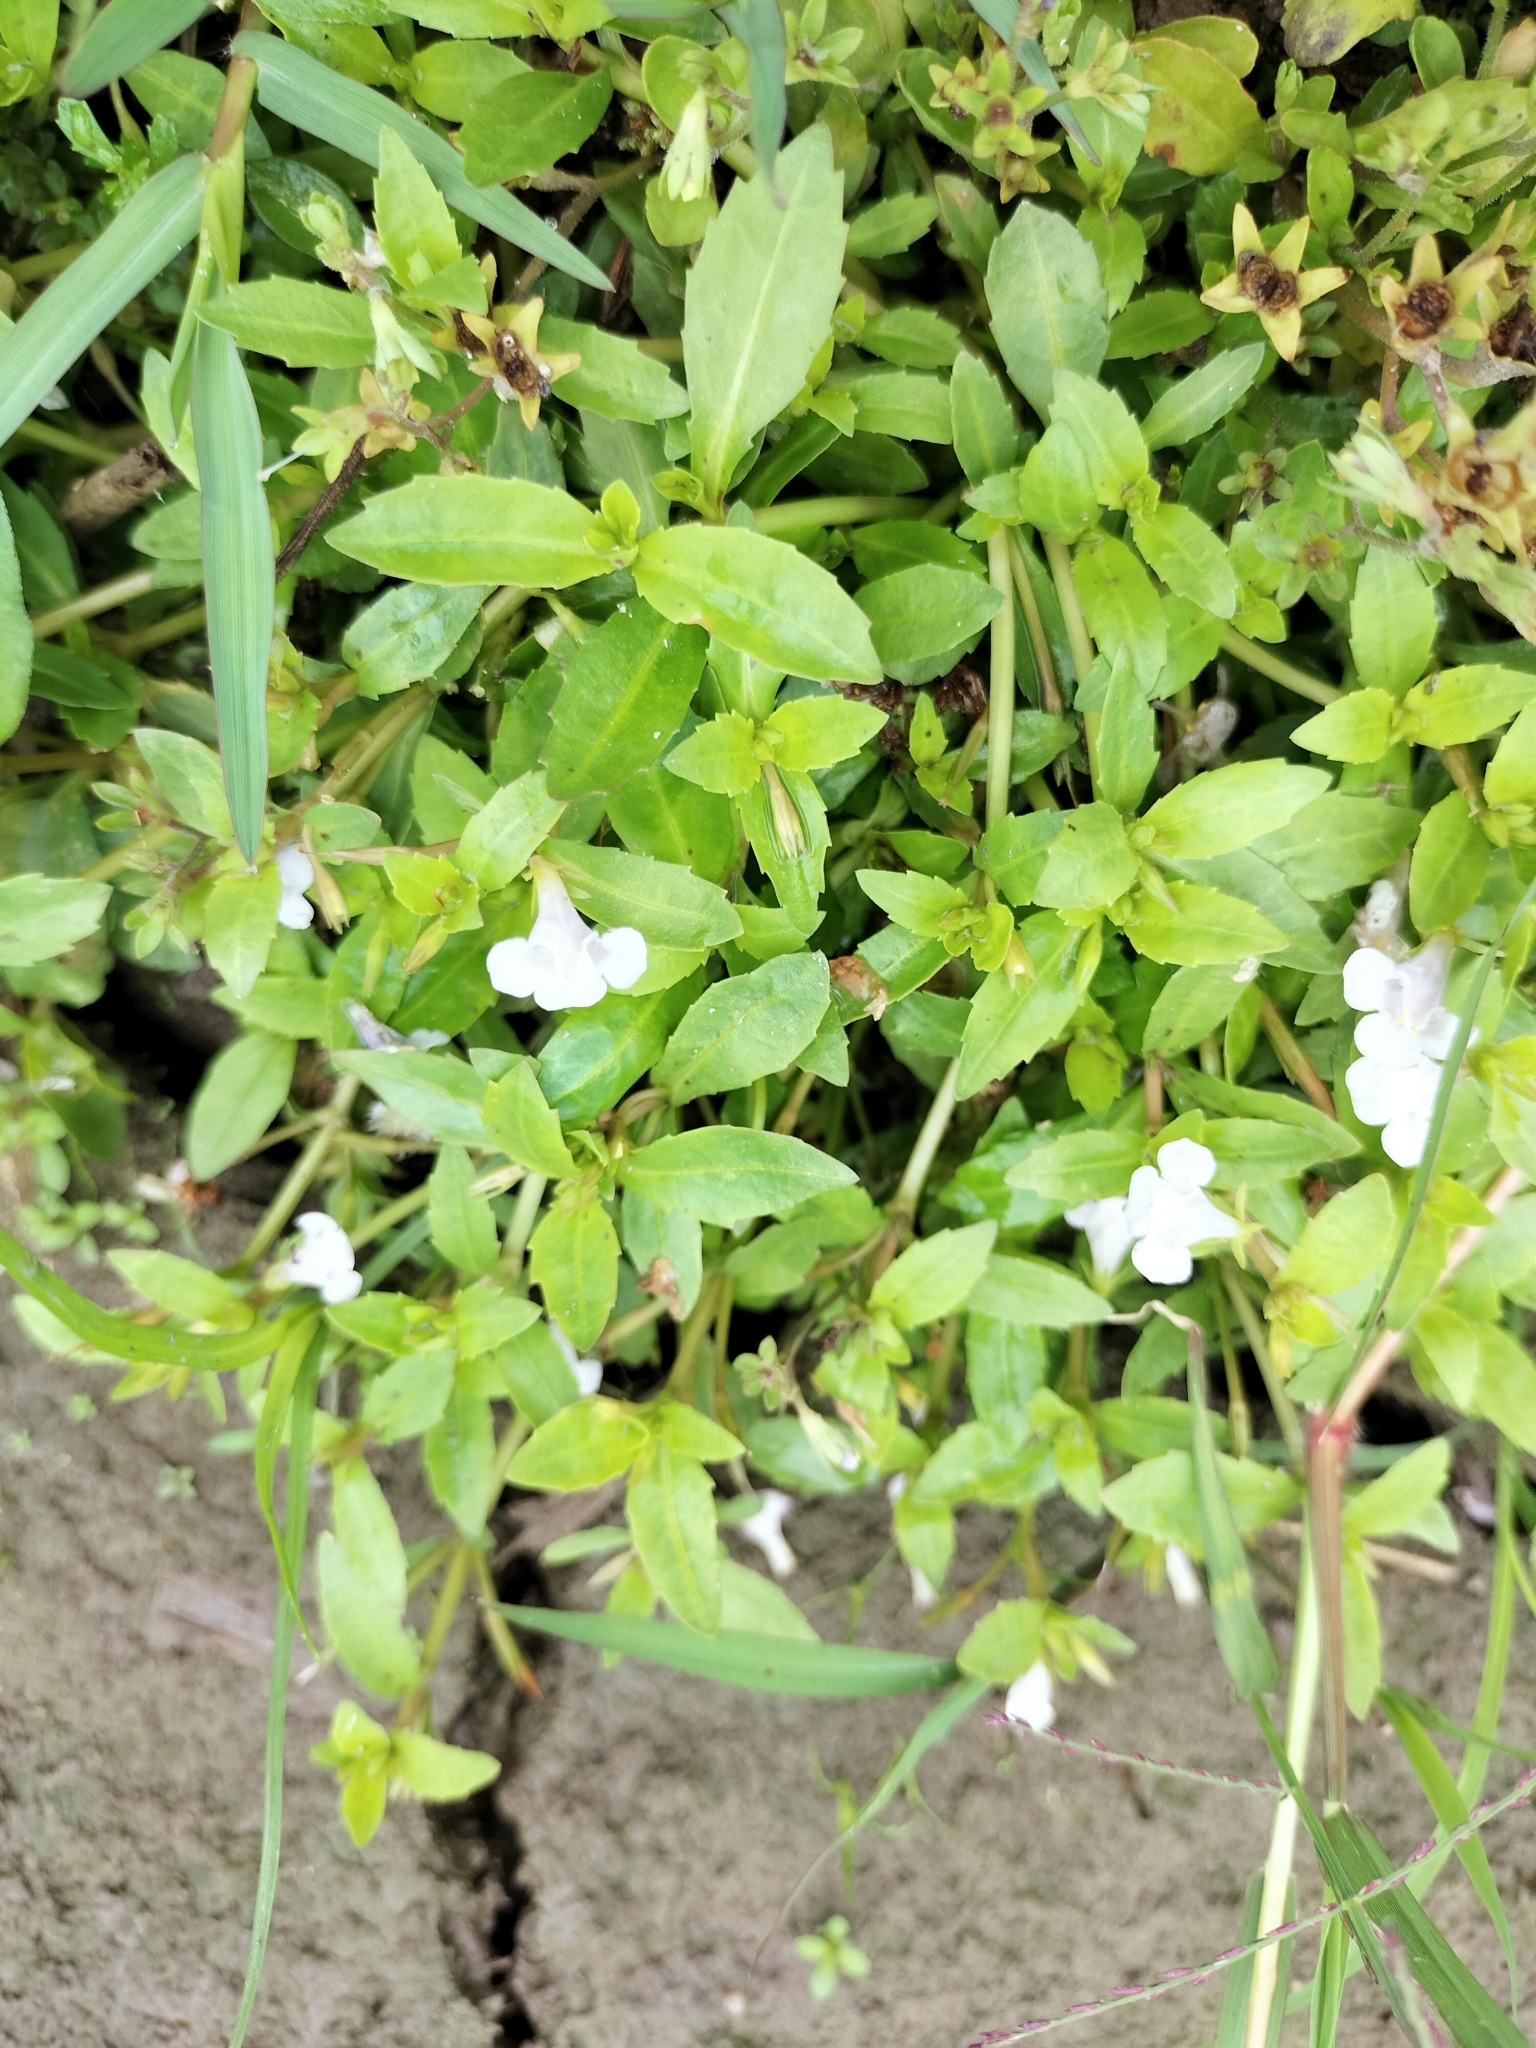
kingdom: Plantae
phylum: Tracheophyta
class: Magnoliopsida
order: Lamiales
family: Linderniaceae
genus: Bonnaya
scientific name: Bonnaya antipoda
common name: Sparrow false pimpernel
